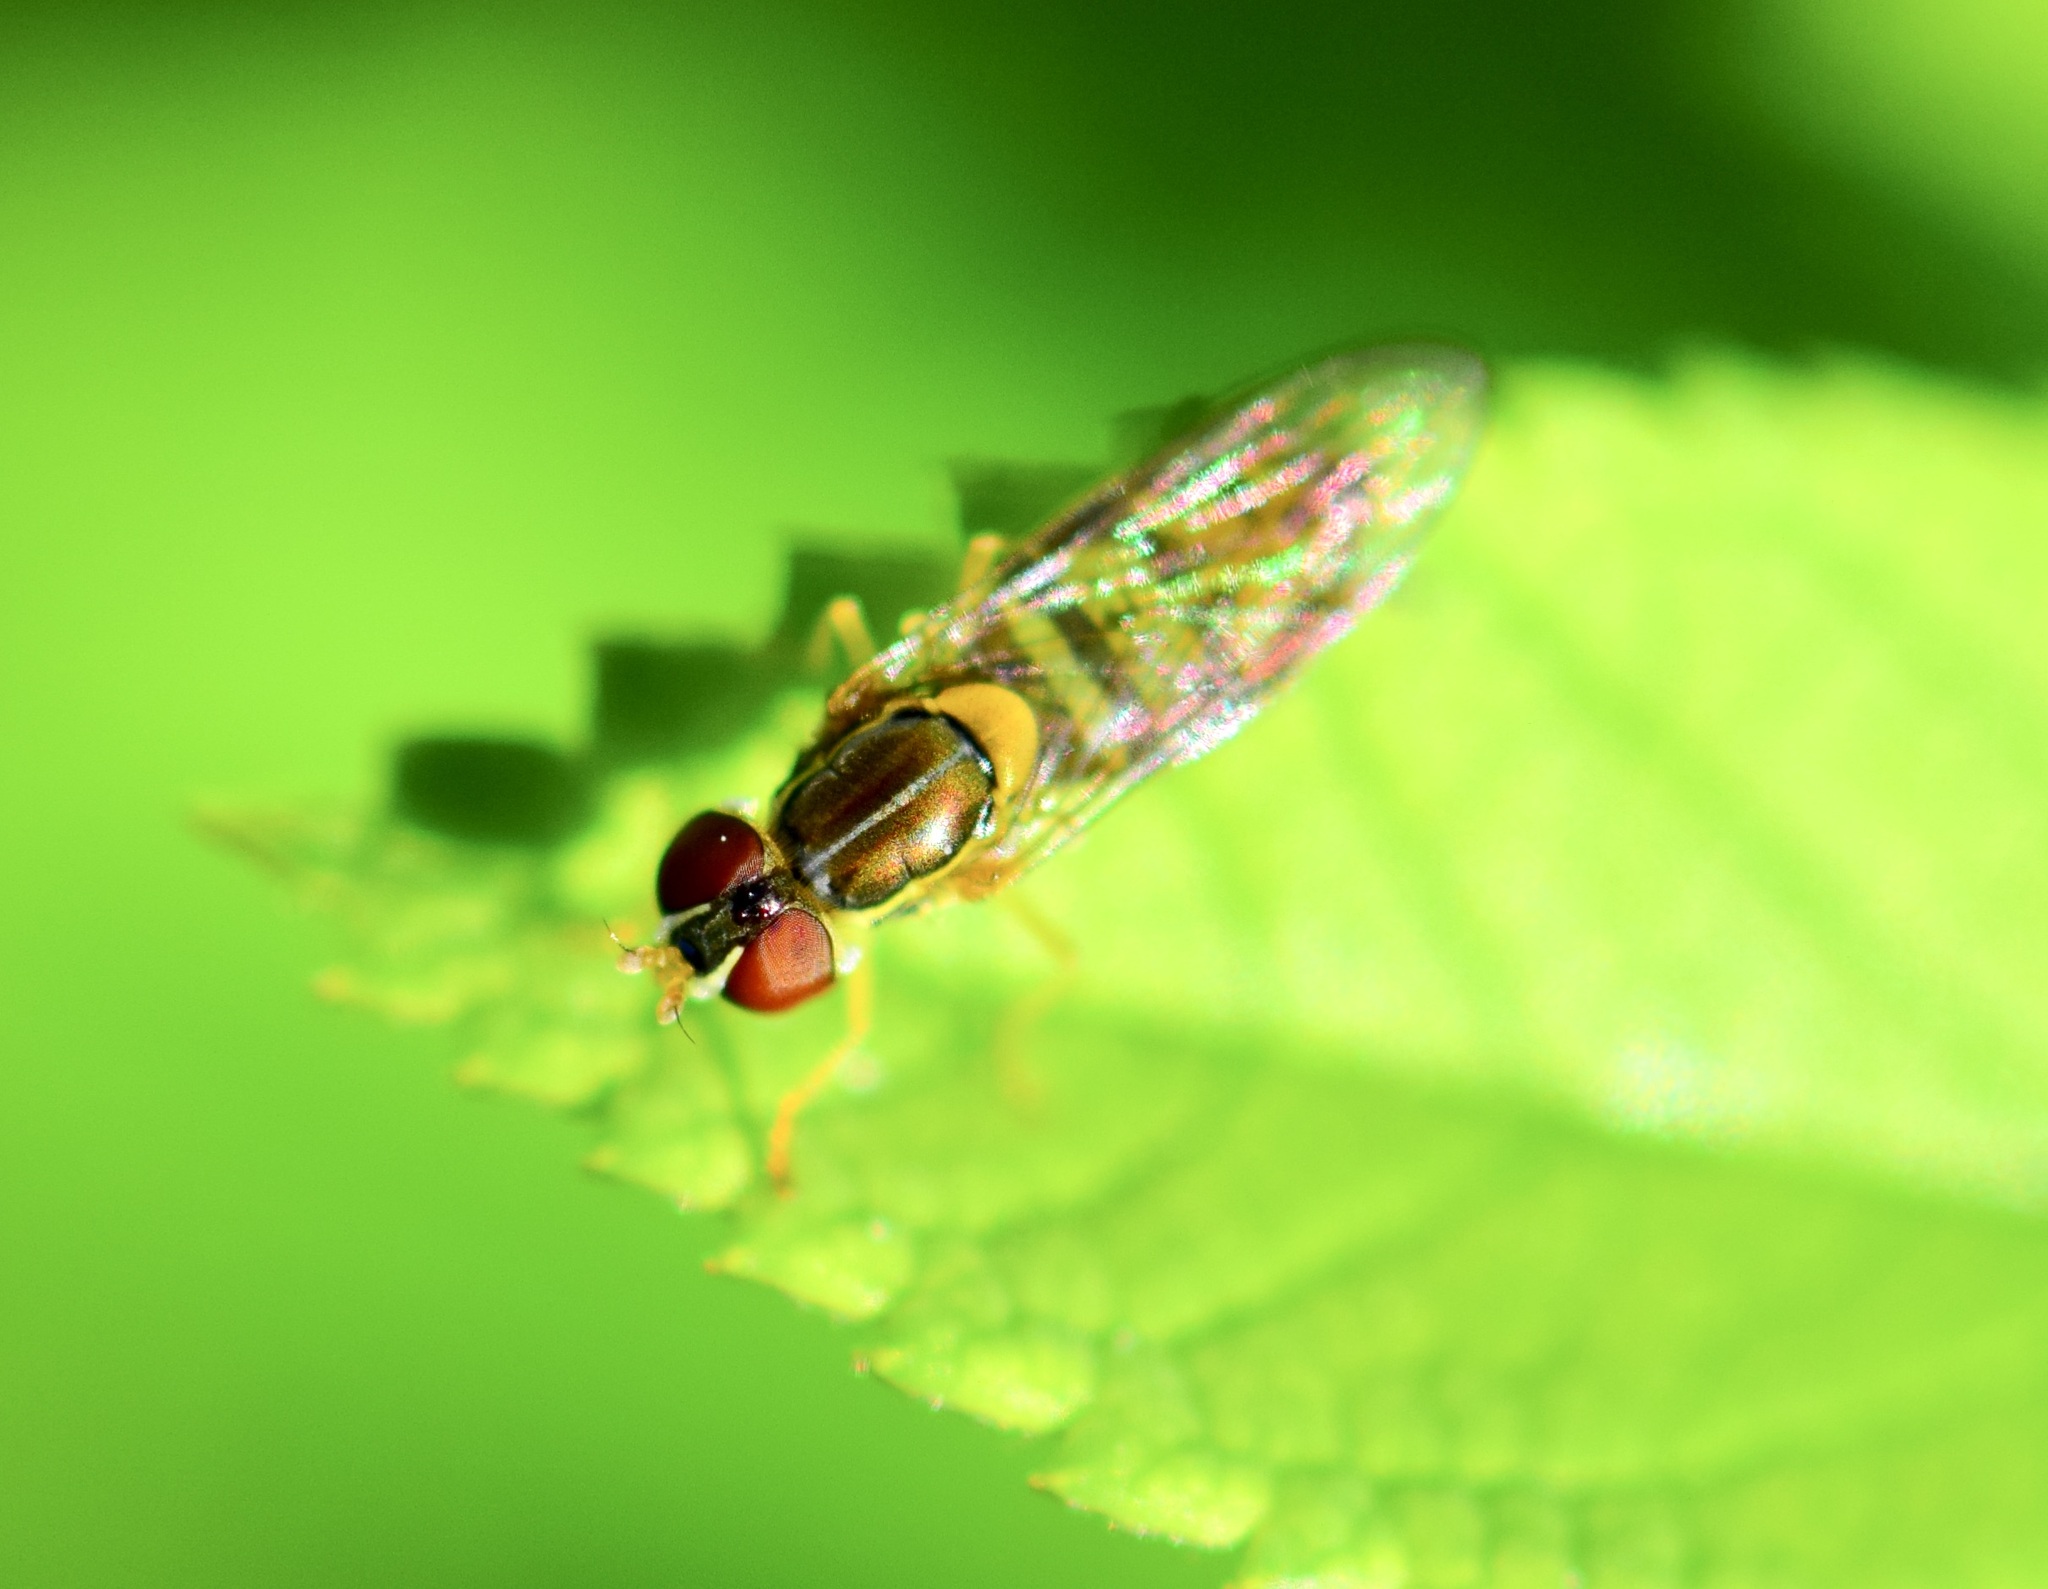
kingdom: Animalia
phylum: Arthropoda
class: Insecta
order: Diptera
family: Syrphidae
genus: Toxomerus
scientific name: Toxomerus marginatus
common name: Syrphid fly
